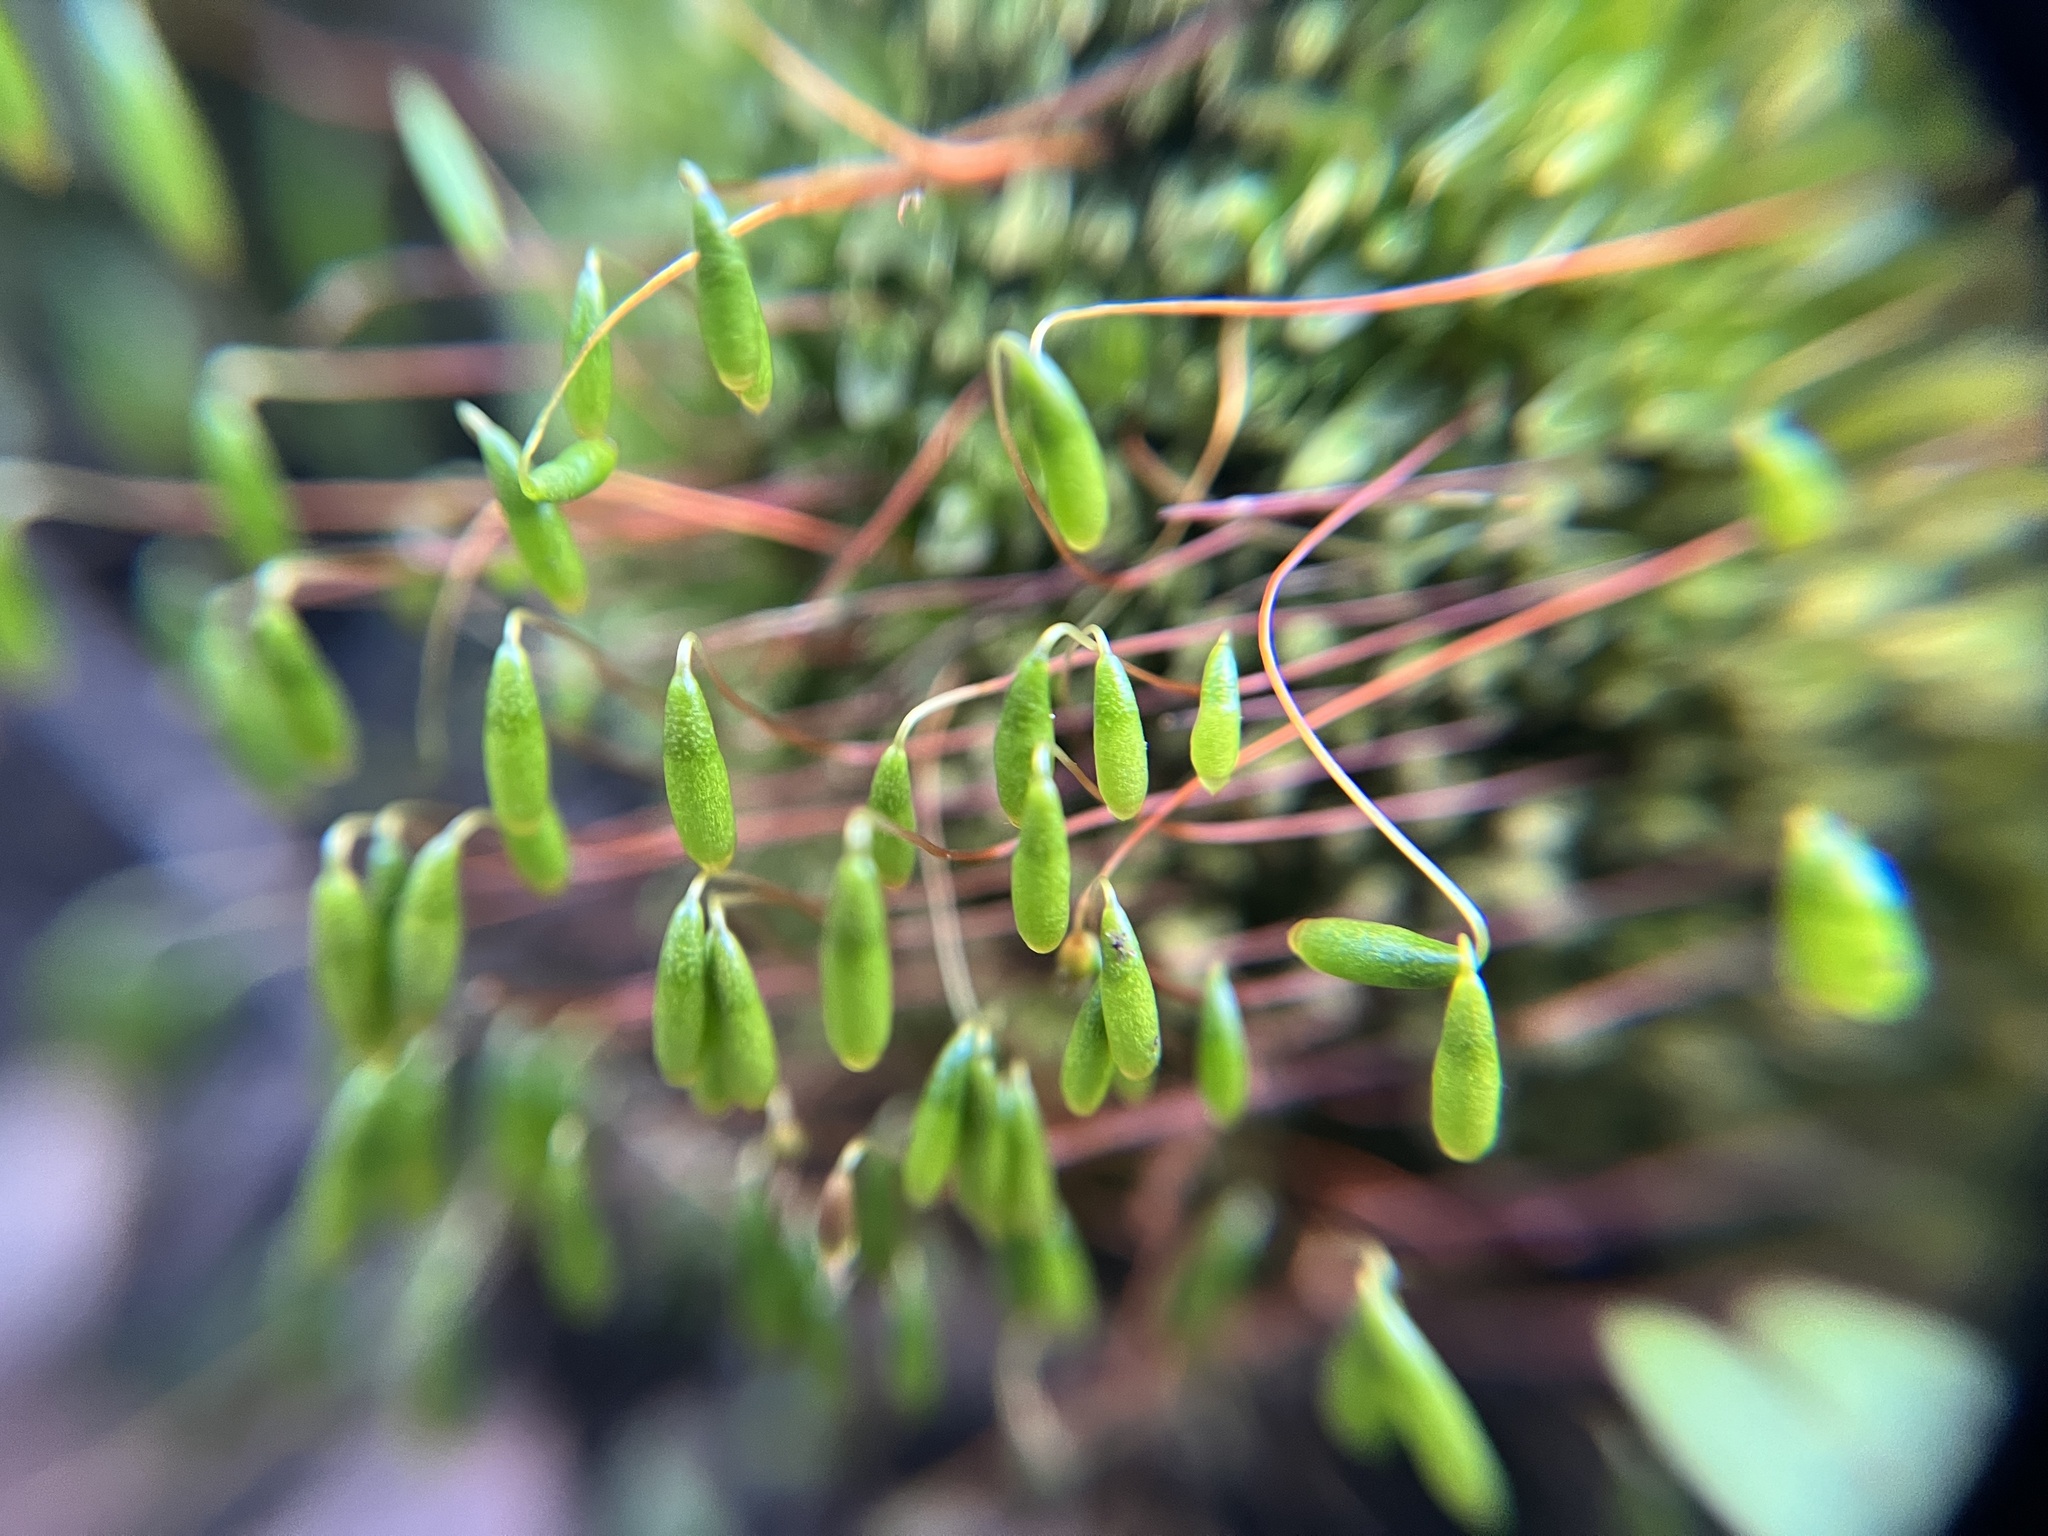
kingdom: Plantae
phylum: Bryophyta
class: Bryopsida
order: Bryales
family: Bryaceae
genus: Rosulabryum
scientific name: Rosulabryum capillare
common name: Capillary thread-moss
